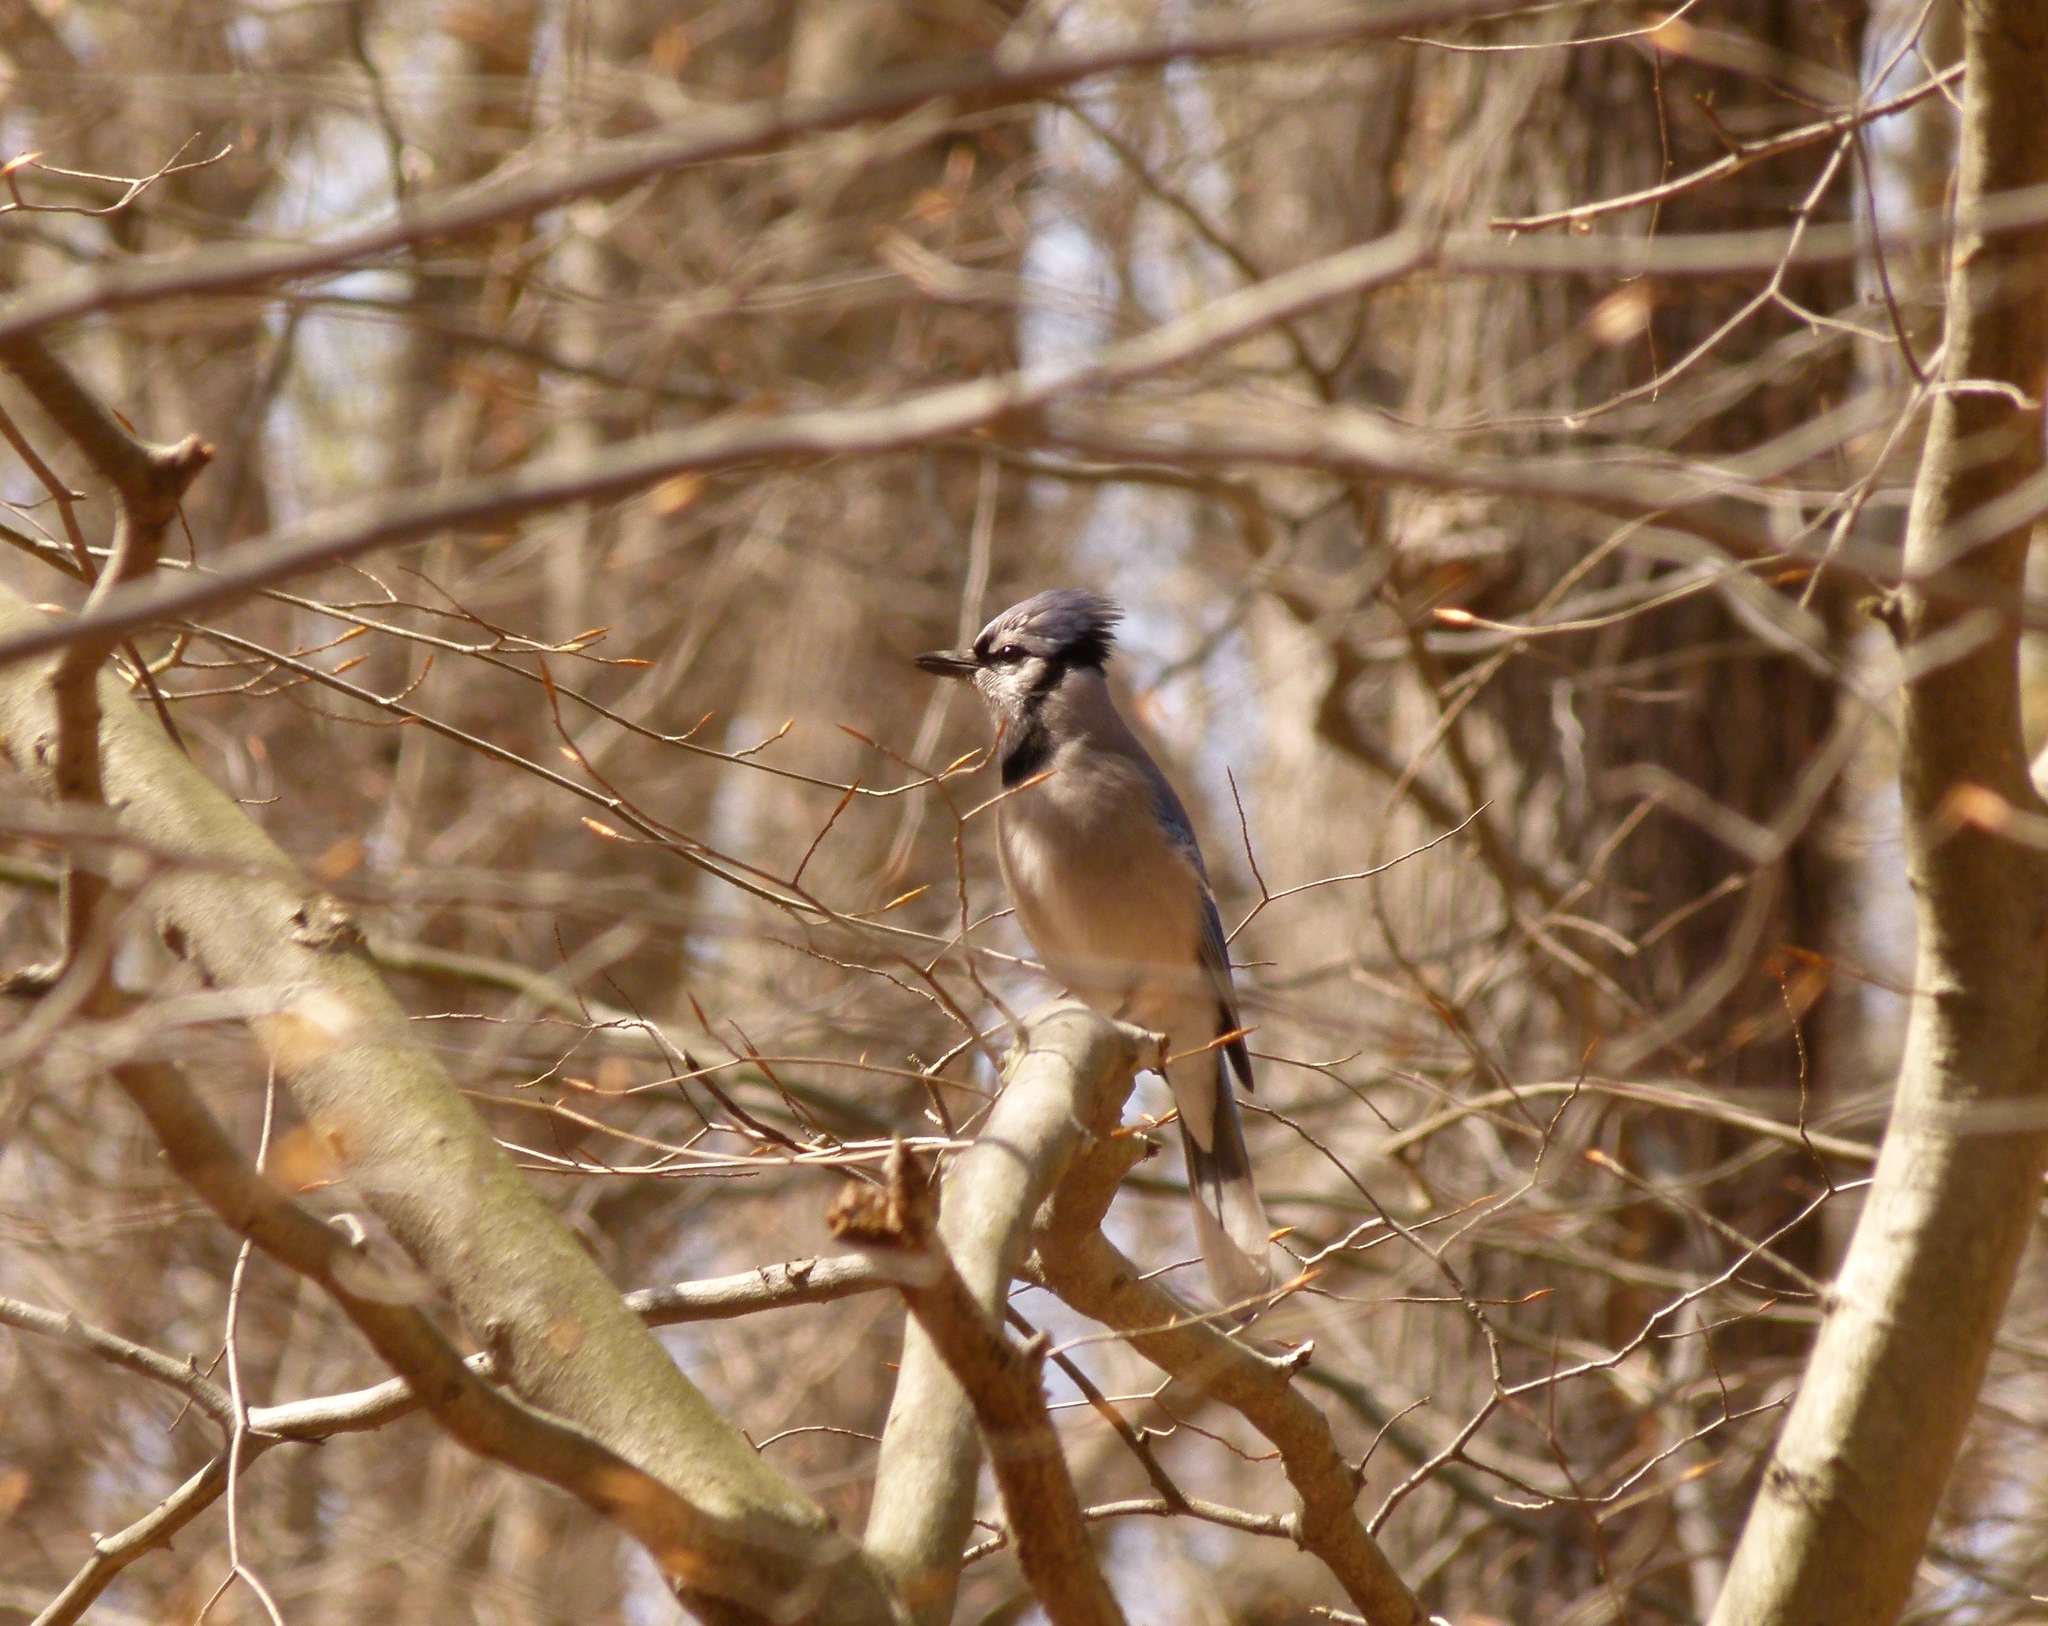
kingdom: Animalia
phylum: Chordata
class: Aves
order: Passeriformes
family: Corvidae
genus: Cyanocitta
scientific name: Cyanocitta cristata
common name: Blue jay
